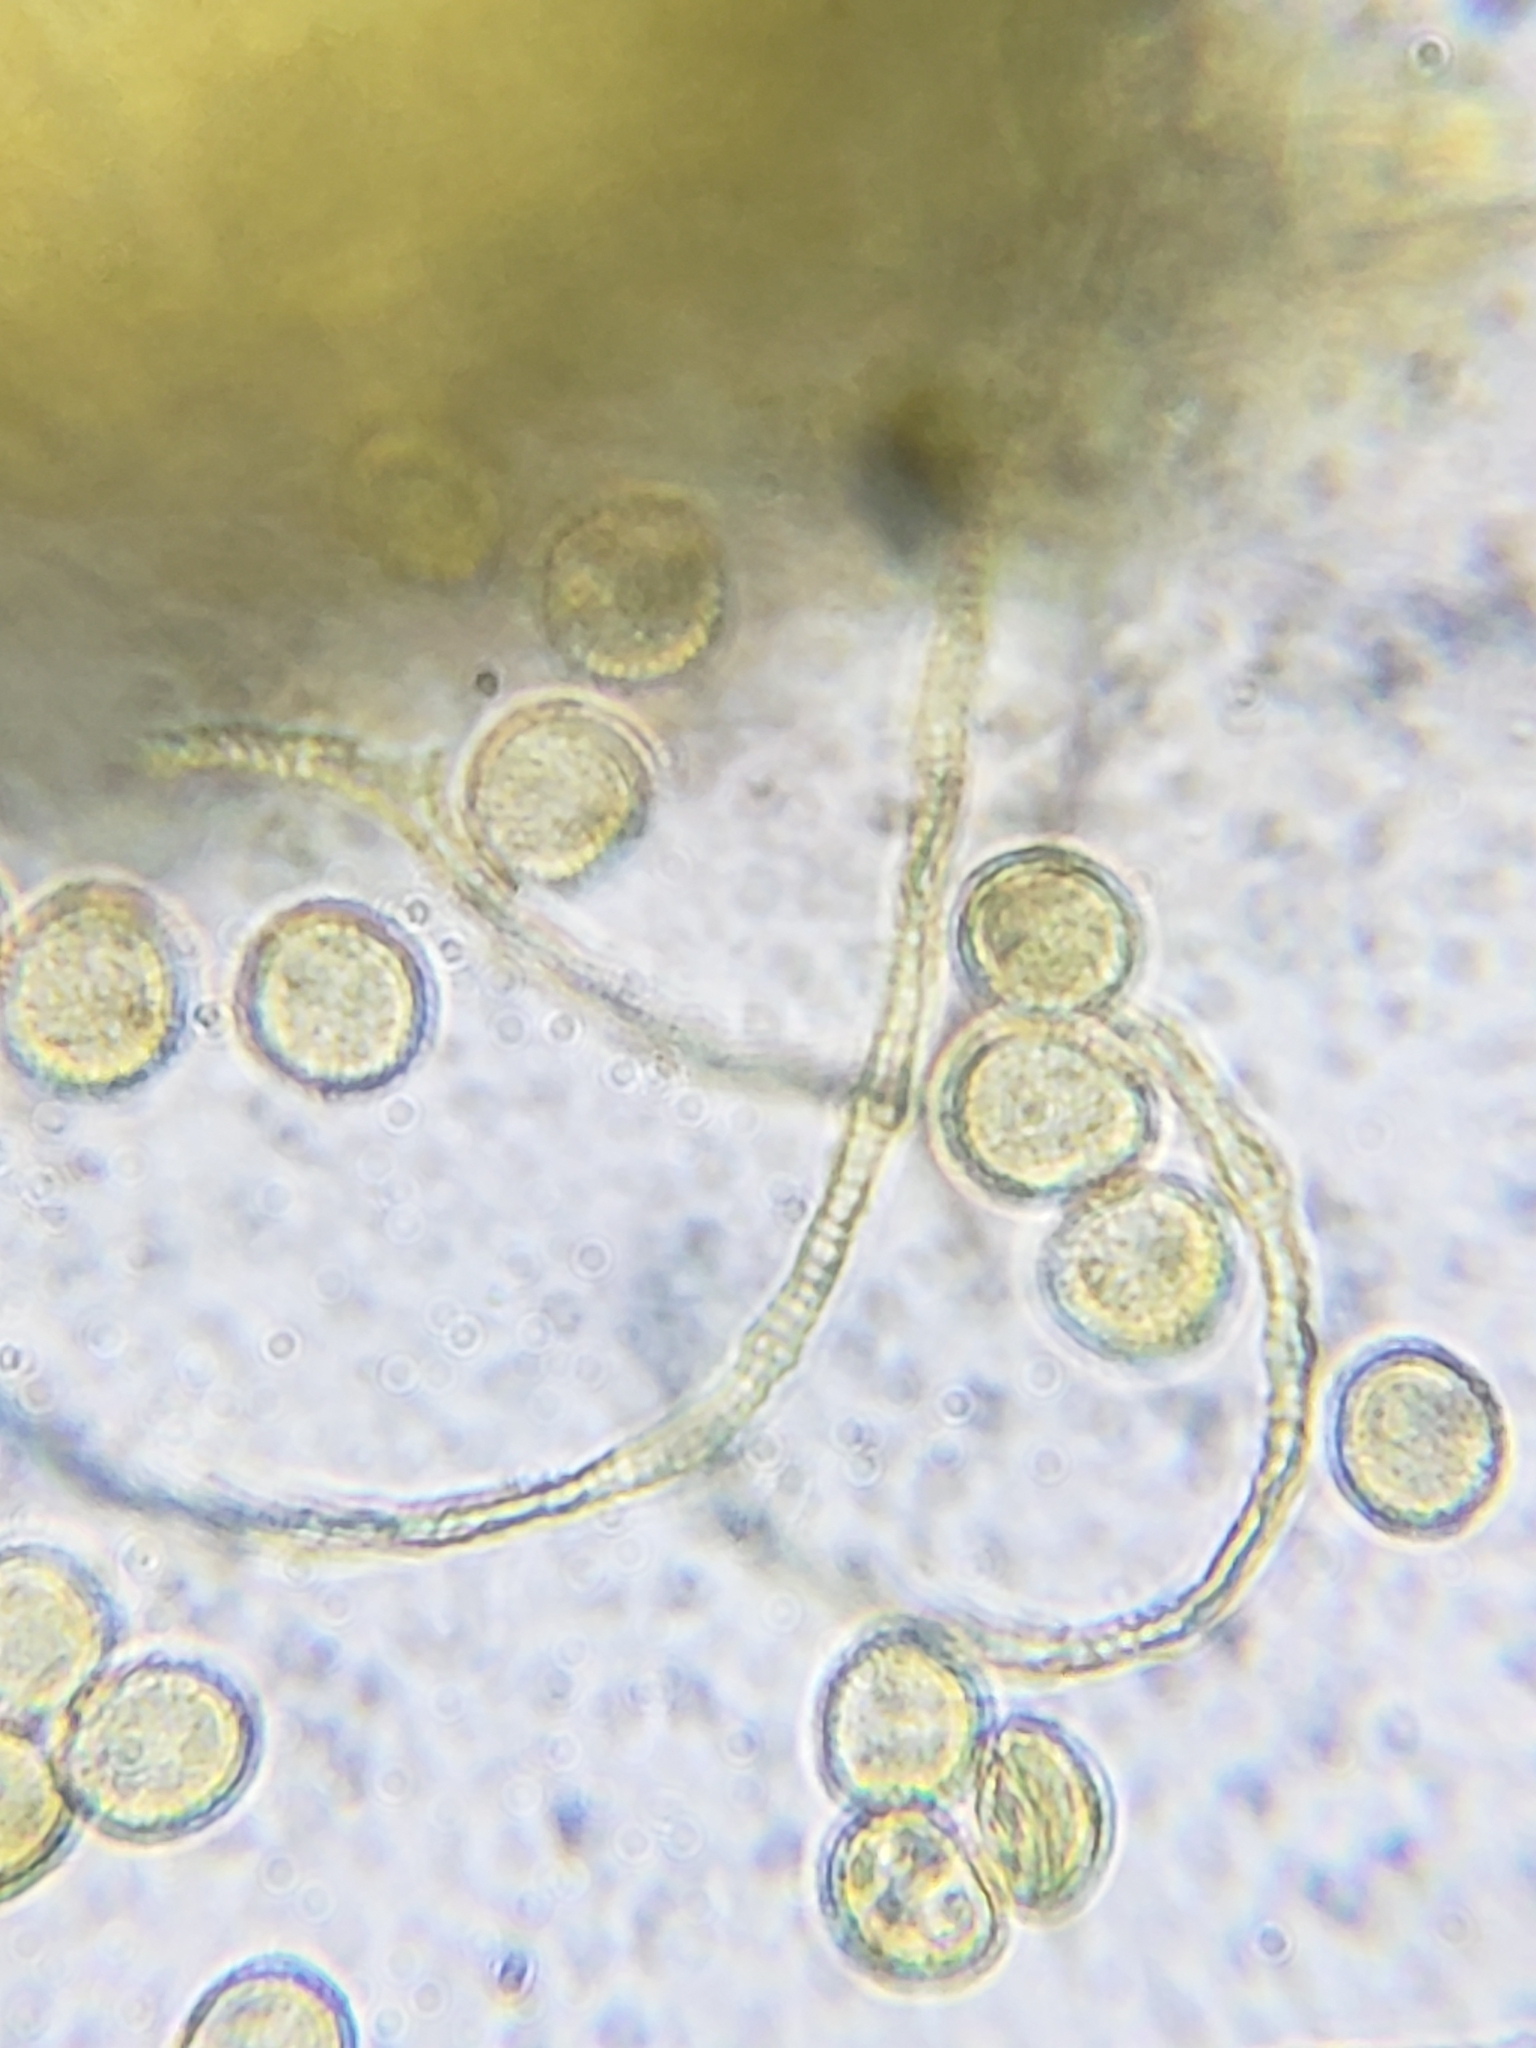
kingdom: Protozoa
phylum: Mycetozoa
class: Myxomycetes
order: Trichiales
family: Trichiaceae
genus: Perichaena
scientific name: Perichaena depressa
